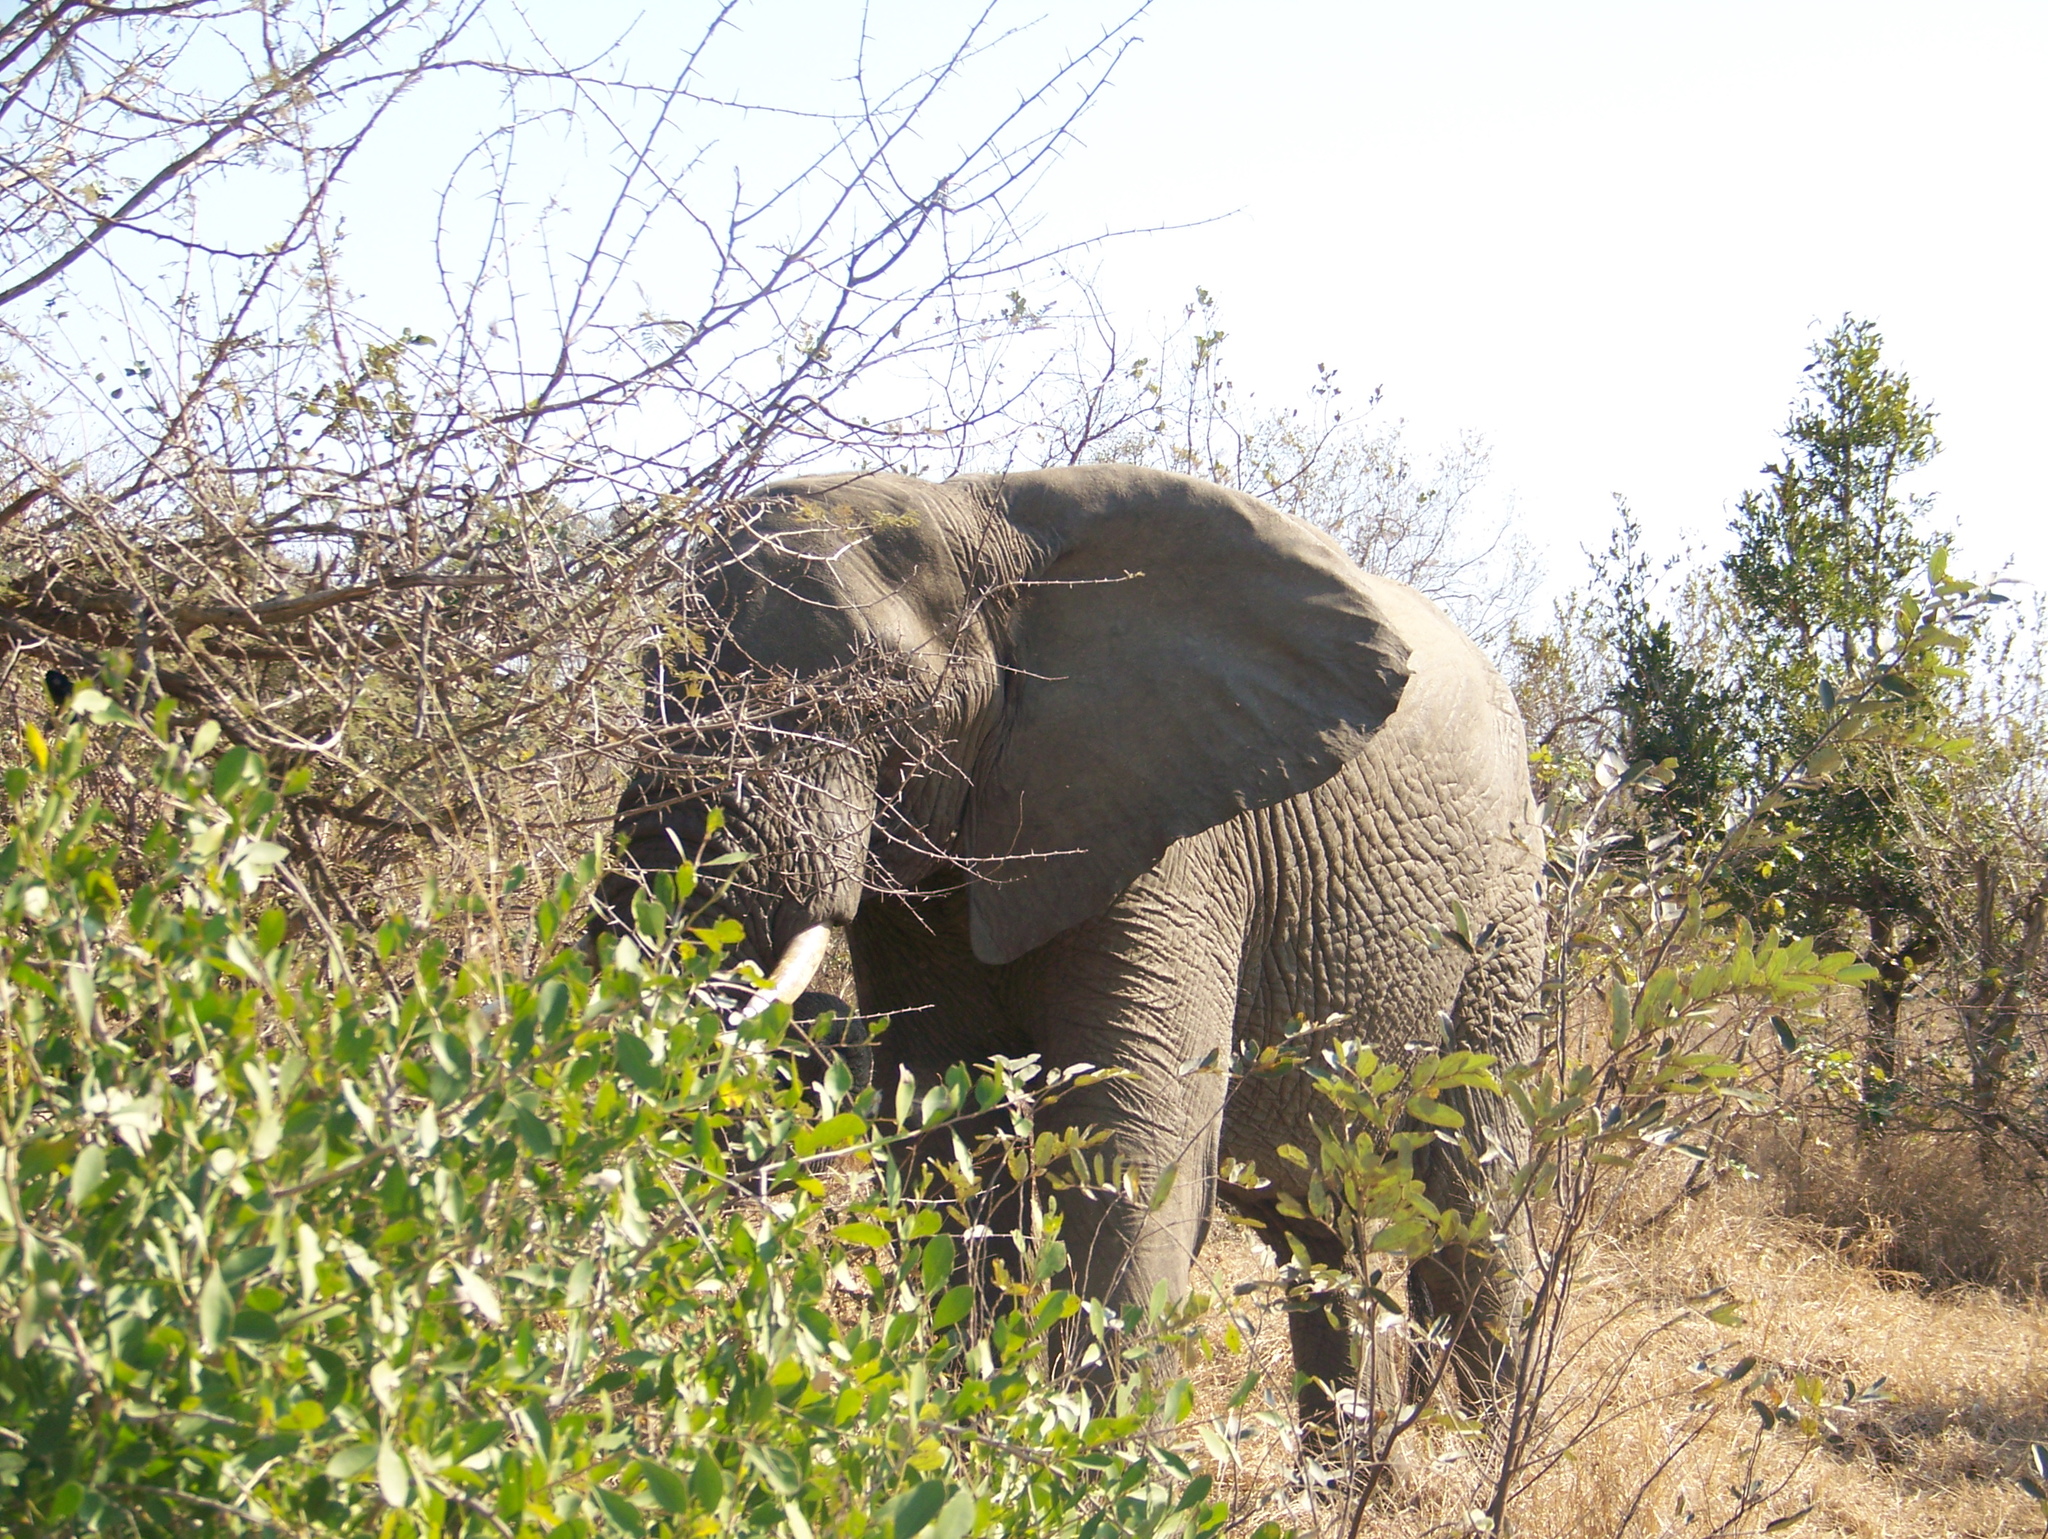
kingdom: Animalia
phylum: Chordata
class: Mammalia
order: Proboscidea
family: Elephantidae
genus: Loxodonta
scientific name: Loxodonta africana
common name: African elephant
